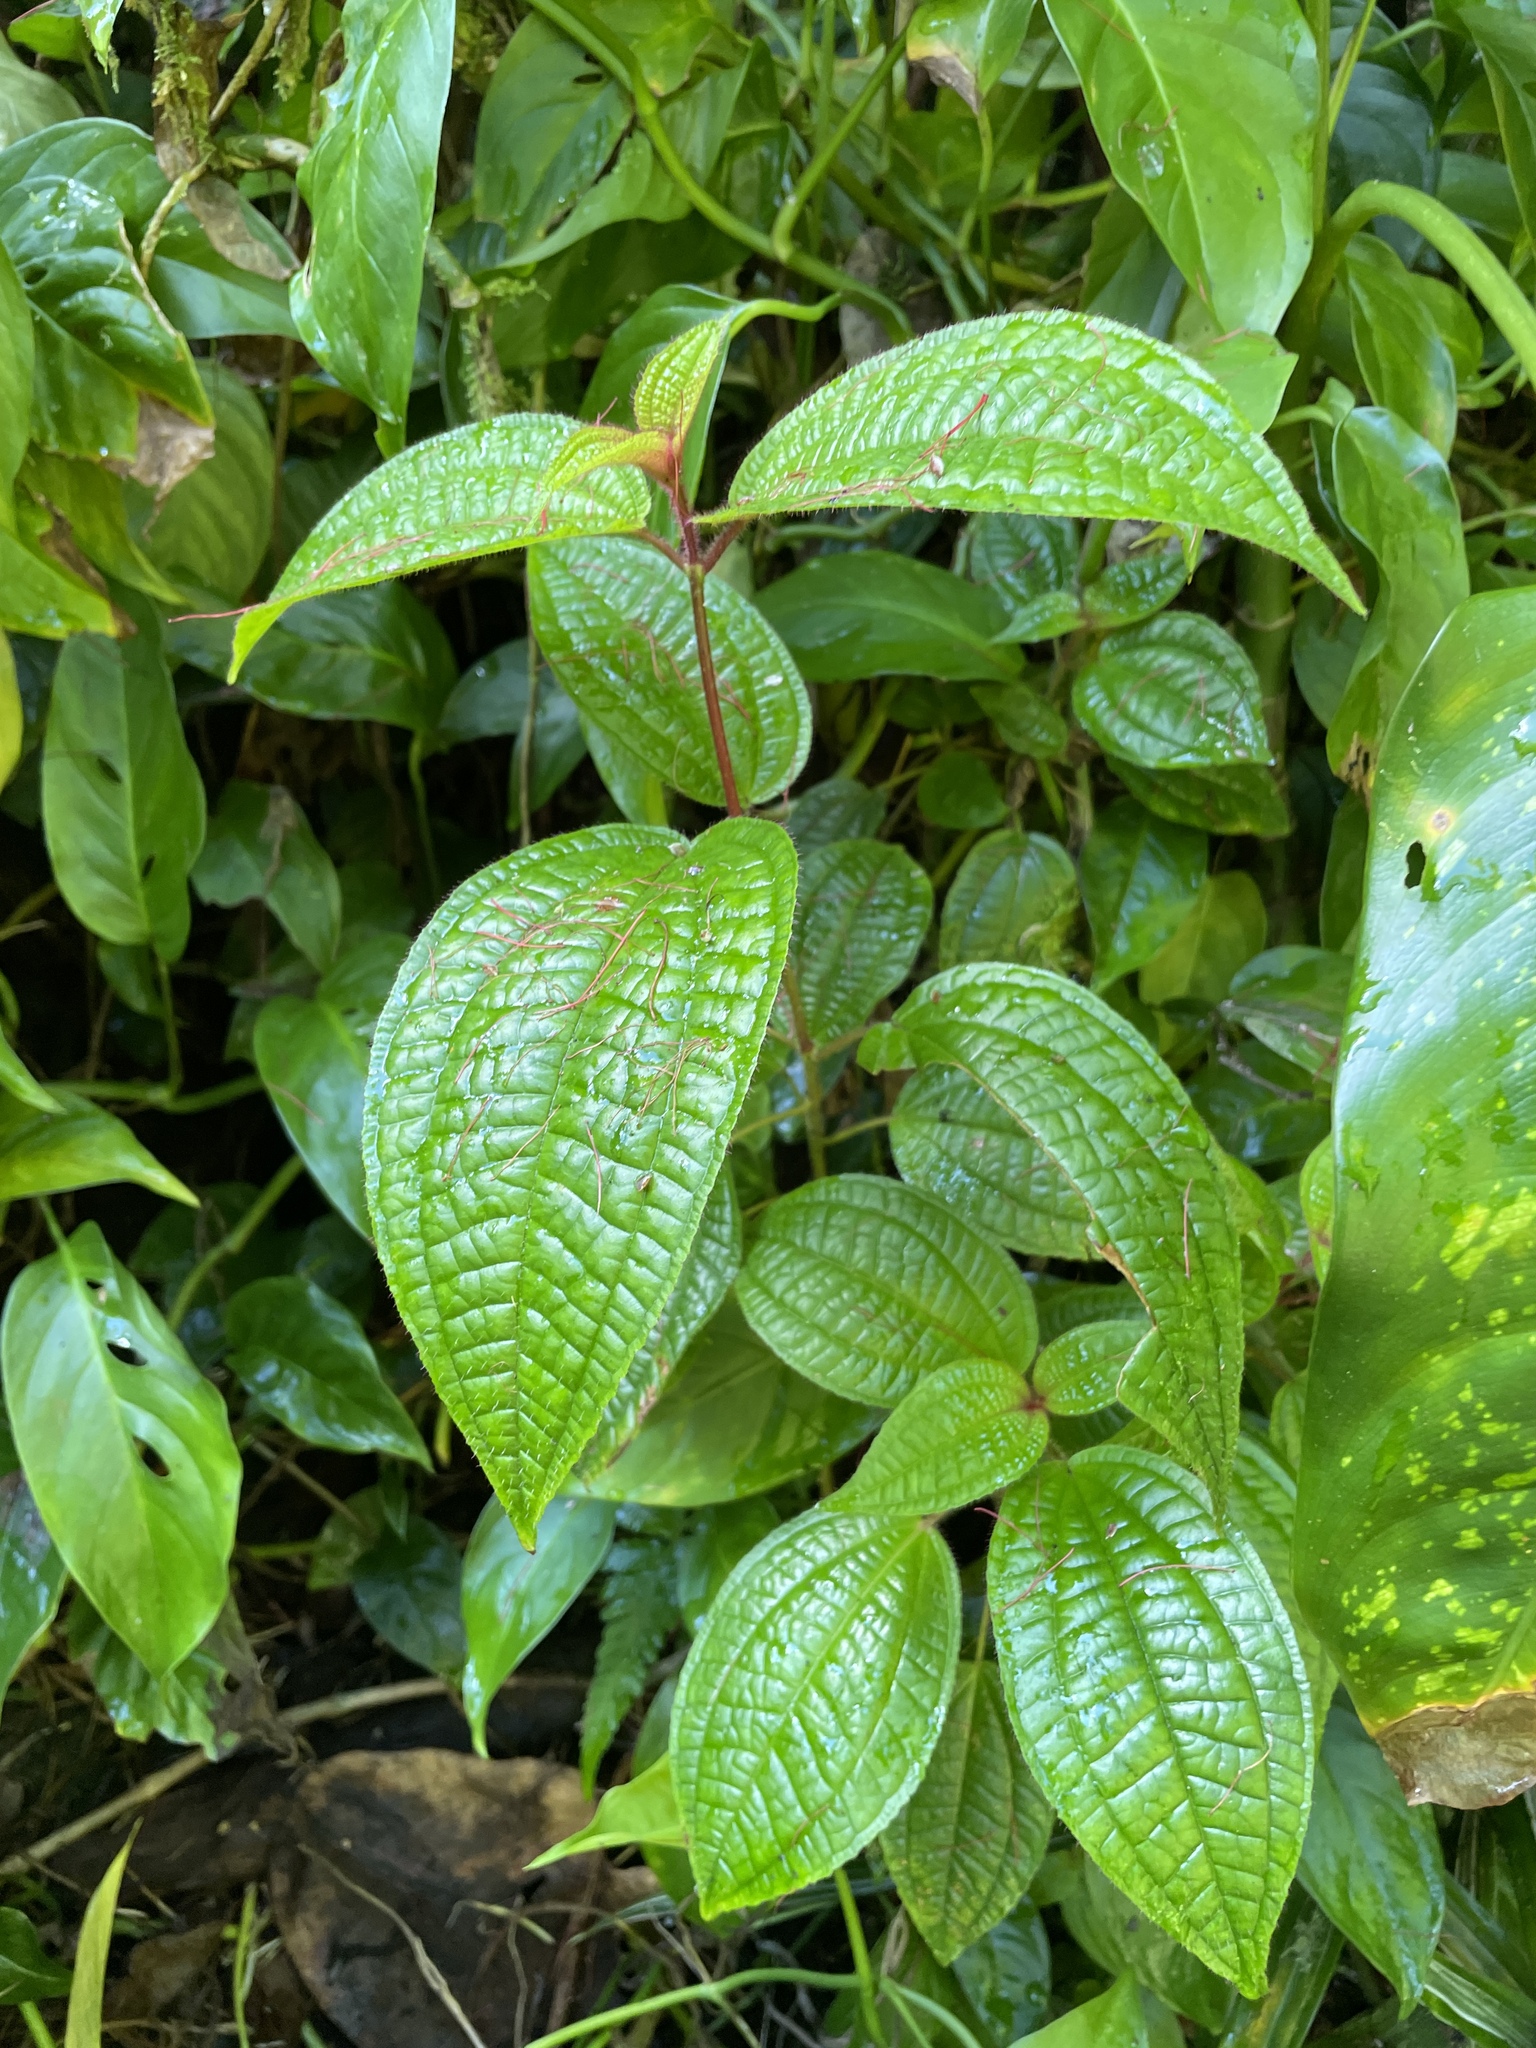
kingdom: Plantae
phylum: Tracheophyta
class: Magnoliopsida
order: Myrtales
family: Melastomataceae
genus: Miconia
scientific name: Miconia crenata
